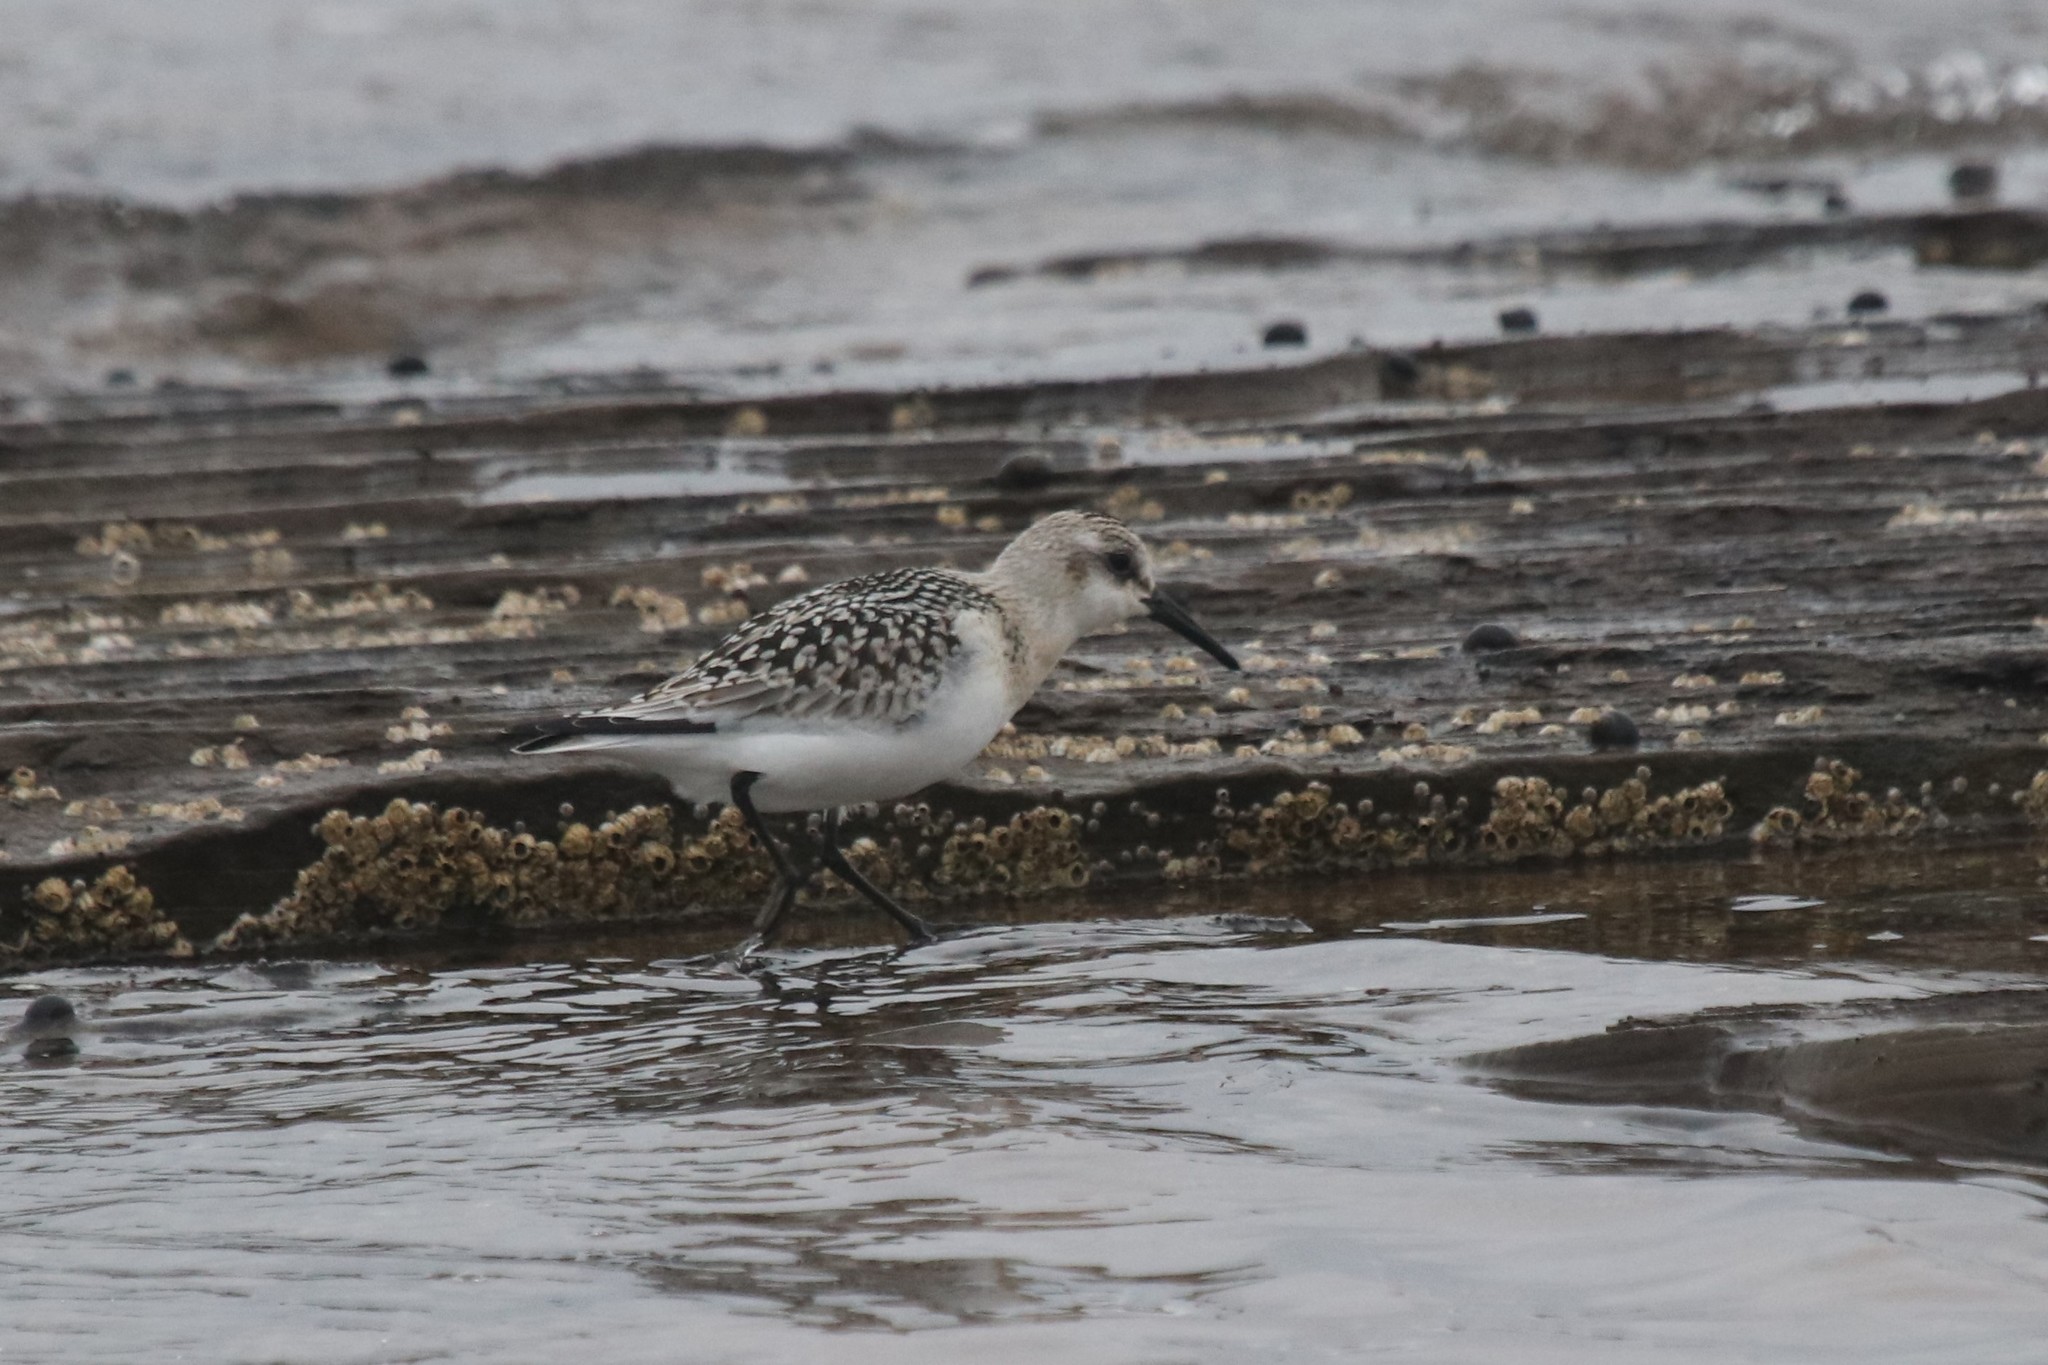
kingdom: Animalia
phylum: Chordata
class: Aves
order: Charadriiformes
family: Scolopacidae
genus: Calidris
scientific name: Calidris alba
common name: Sanderling
